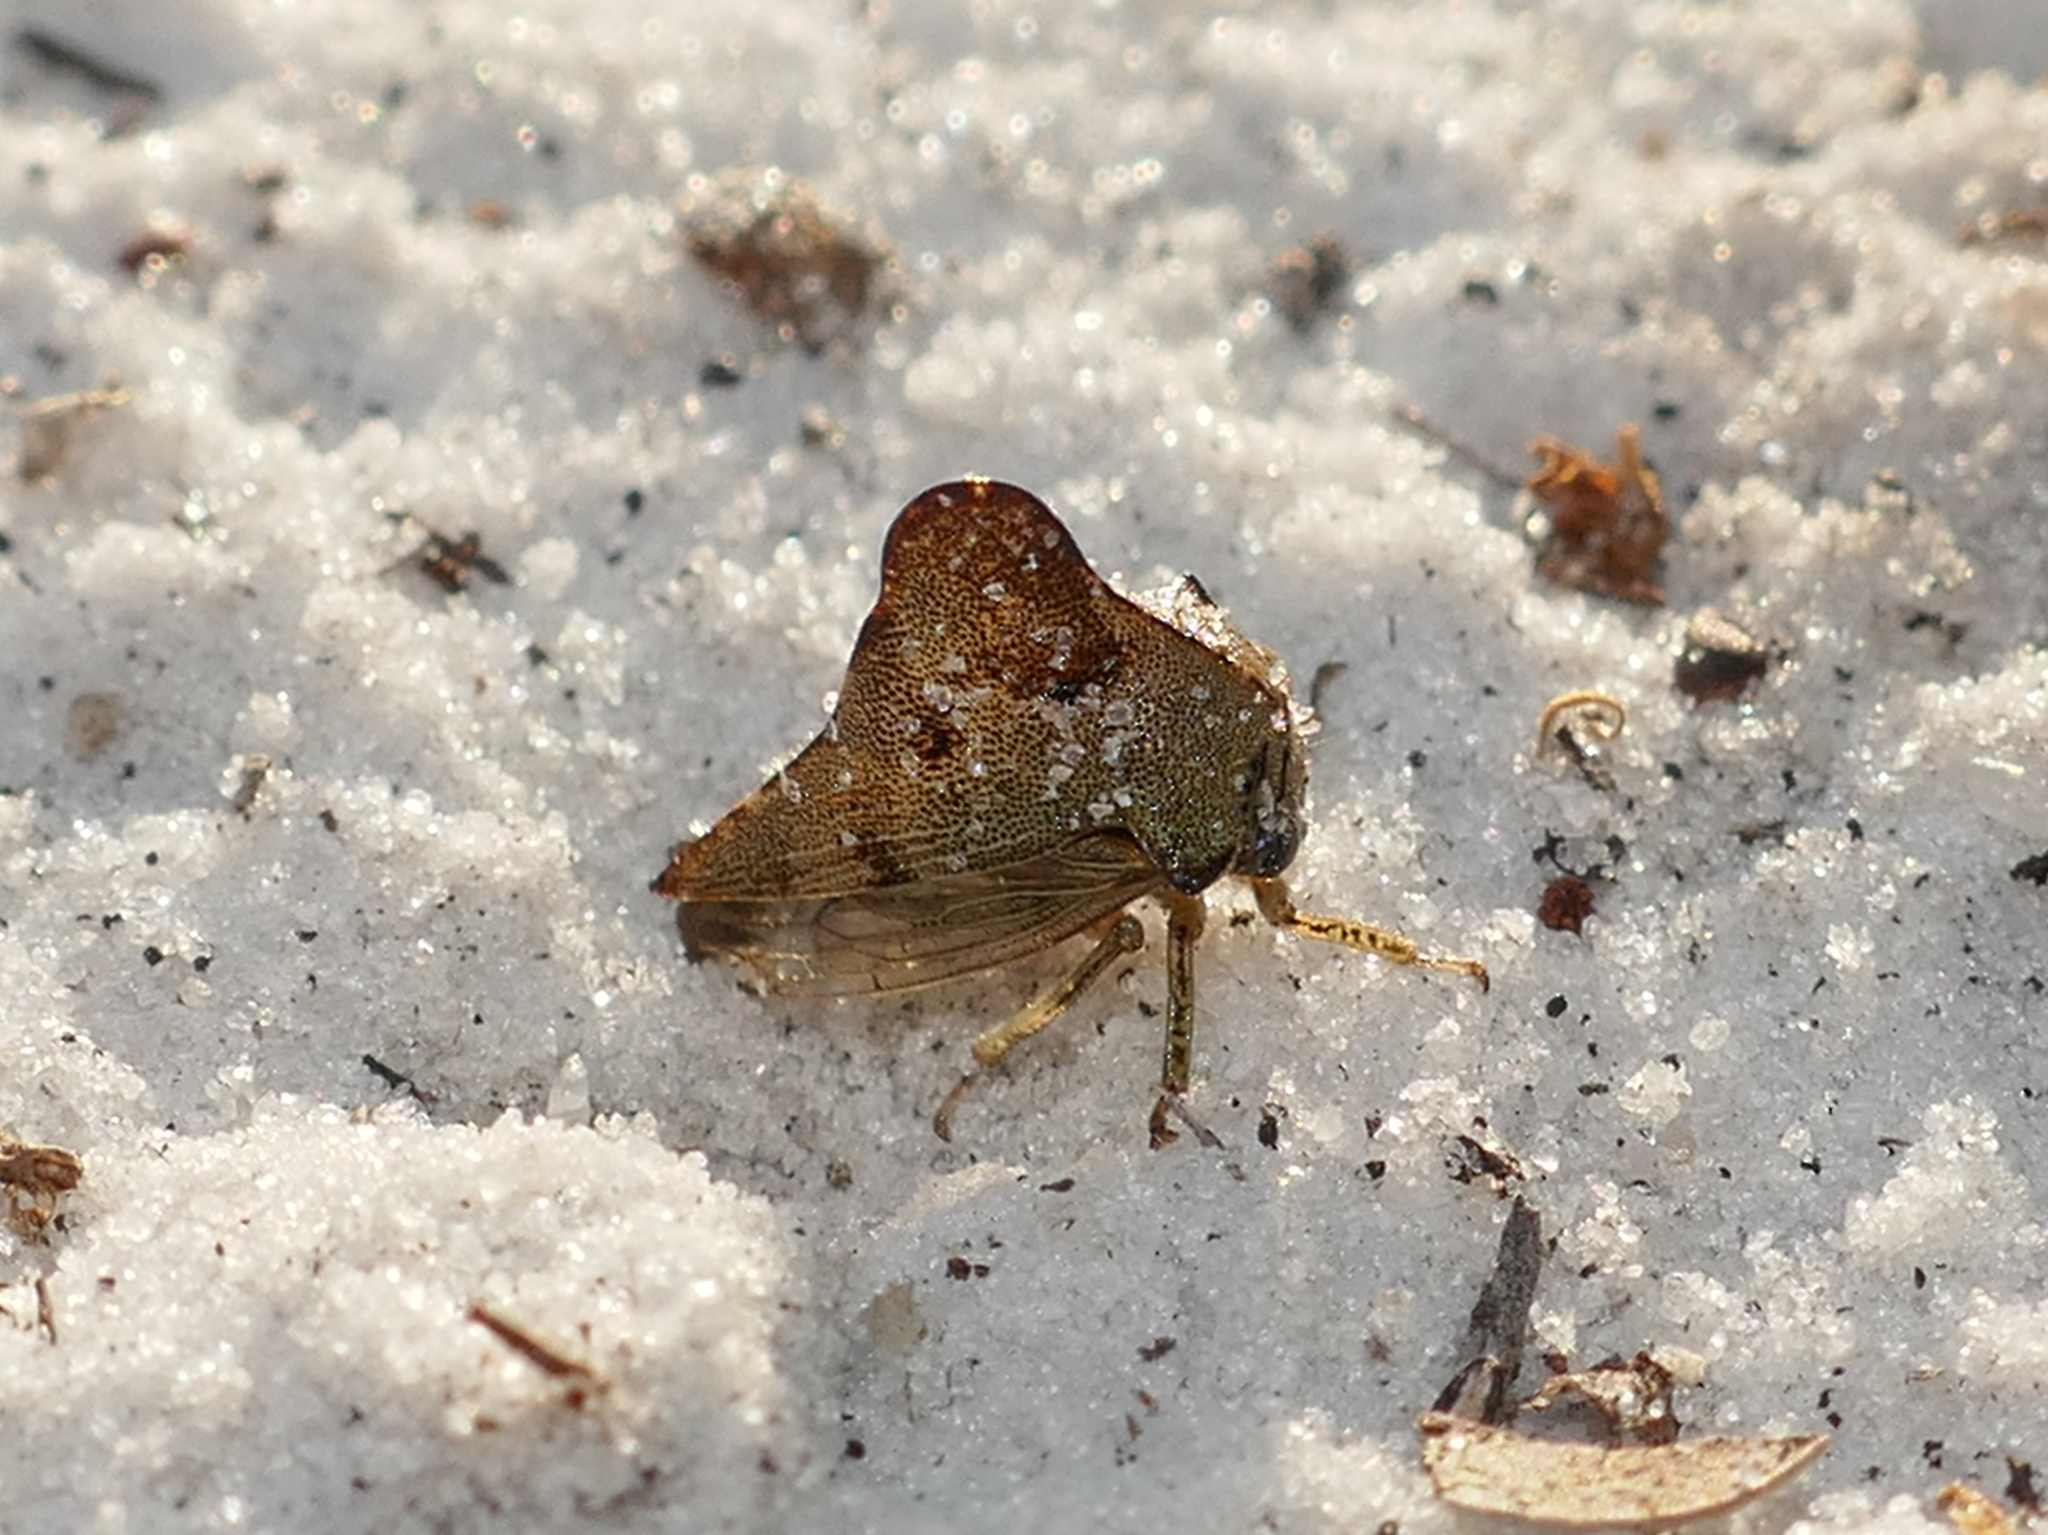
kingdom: Animalia
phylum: Arthropoda
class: Insecta
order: Hemiptera
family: Membracidae
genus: Telonaca
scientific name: Telonaca alta
